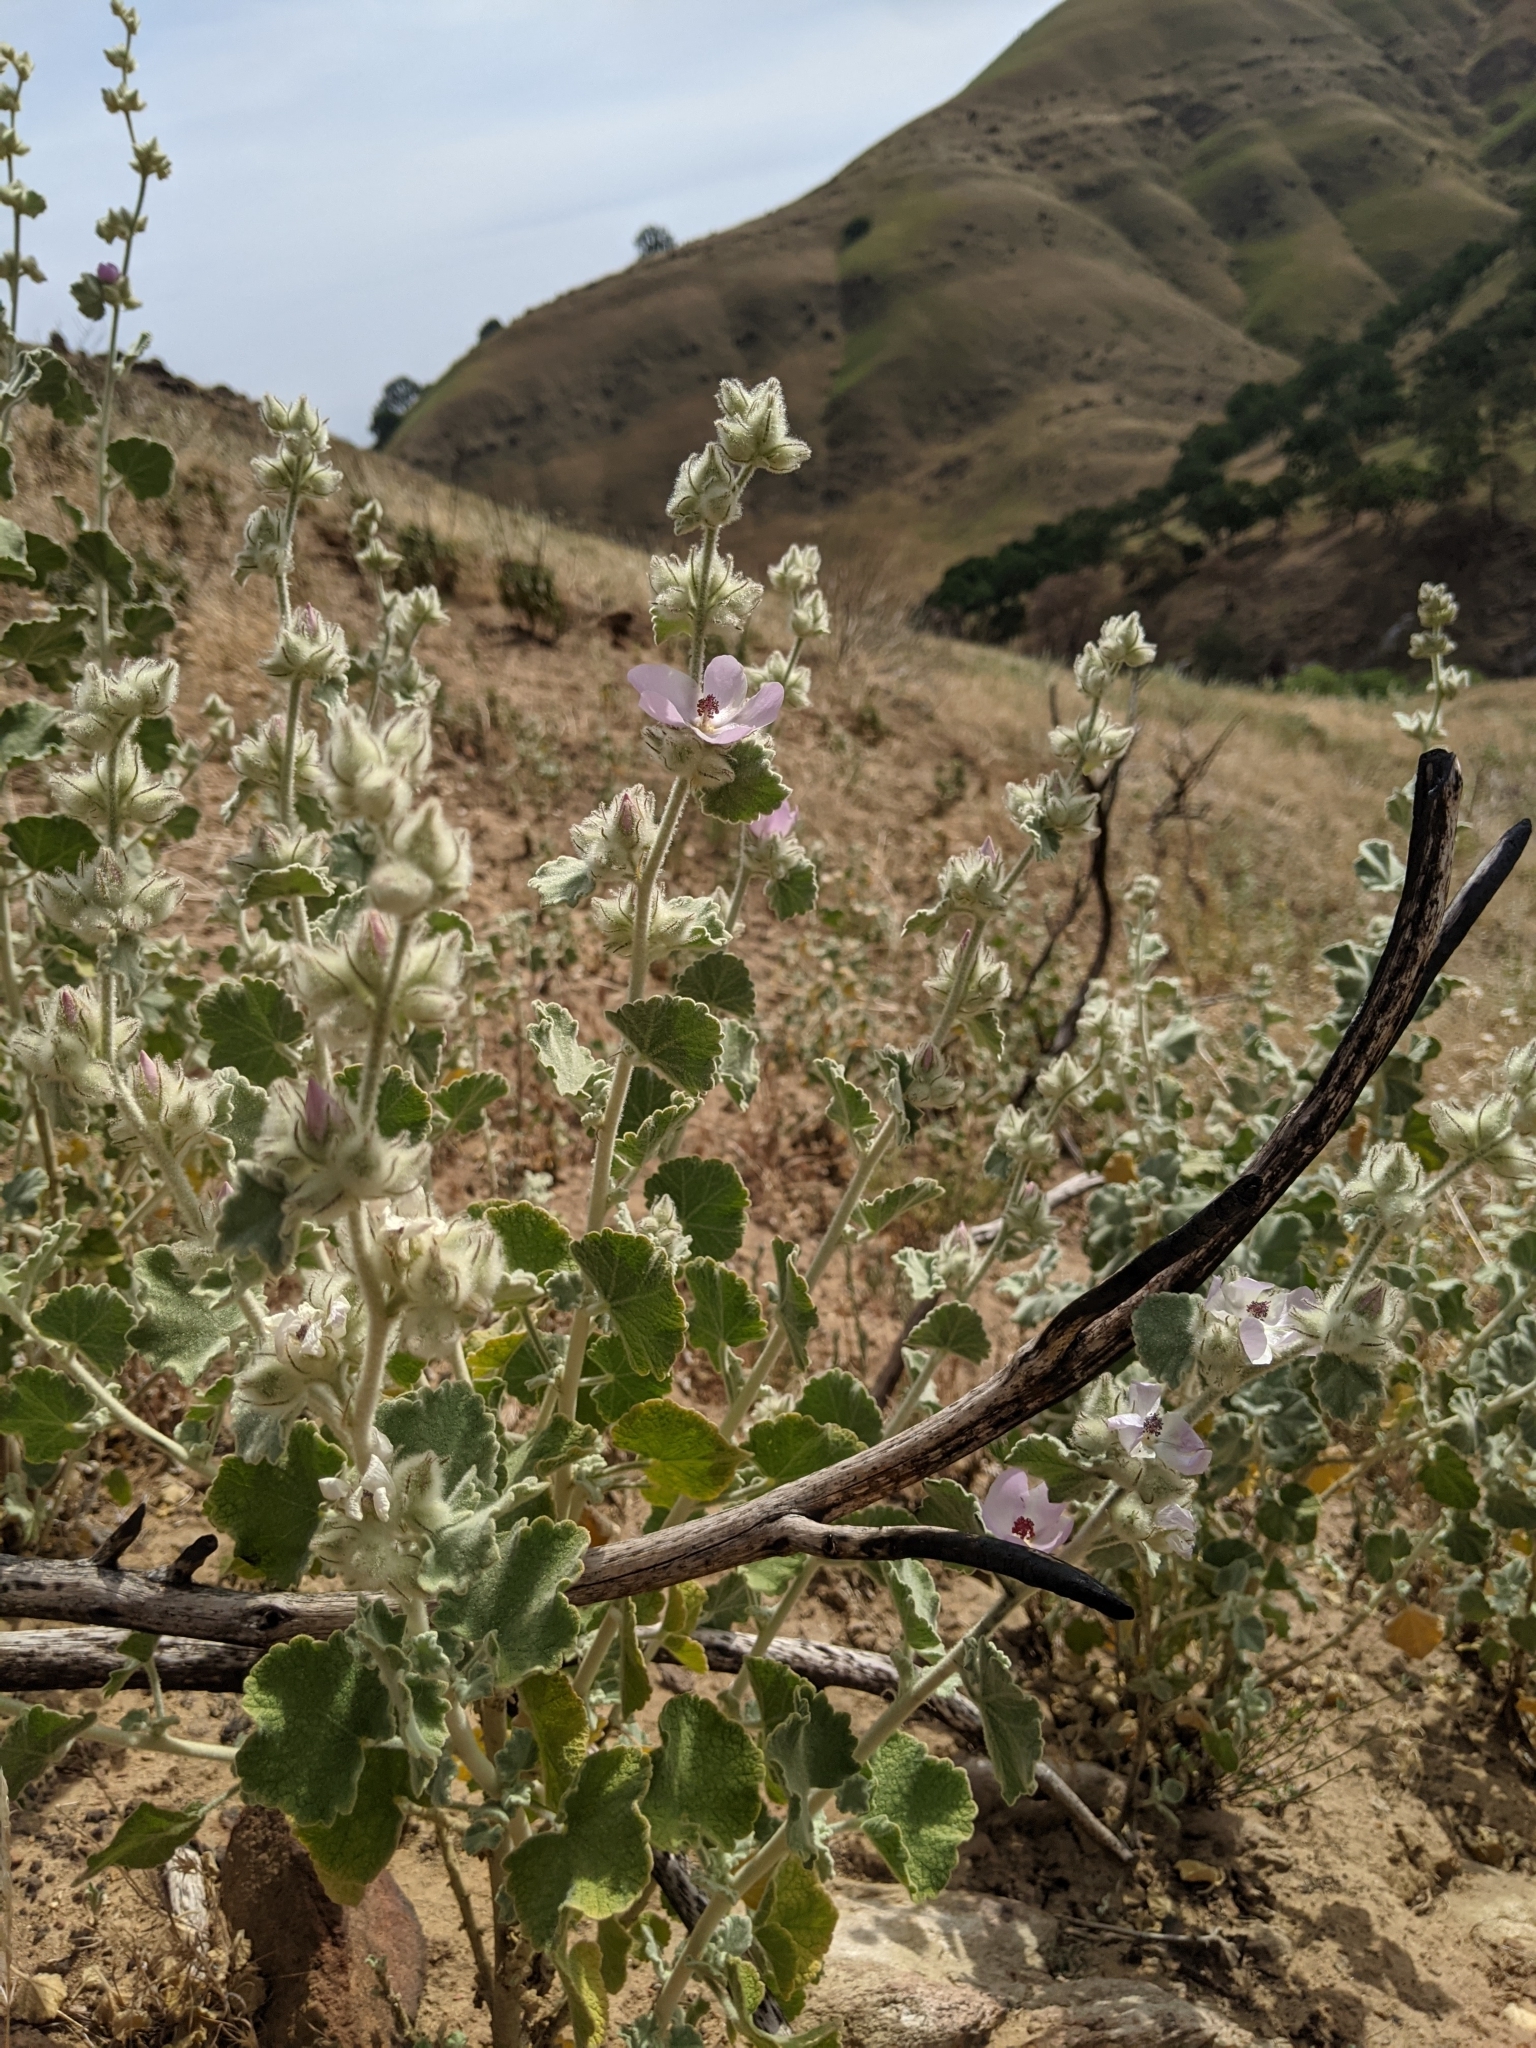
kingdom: Plantae
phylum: Tracheophyta
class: Magnoliopsida
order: Malvales
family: Malvaceae
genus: Malacothamnus
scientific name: Malacothamnus fremontii
